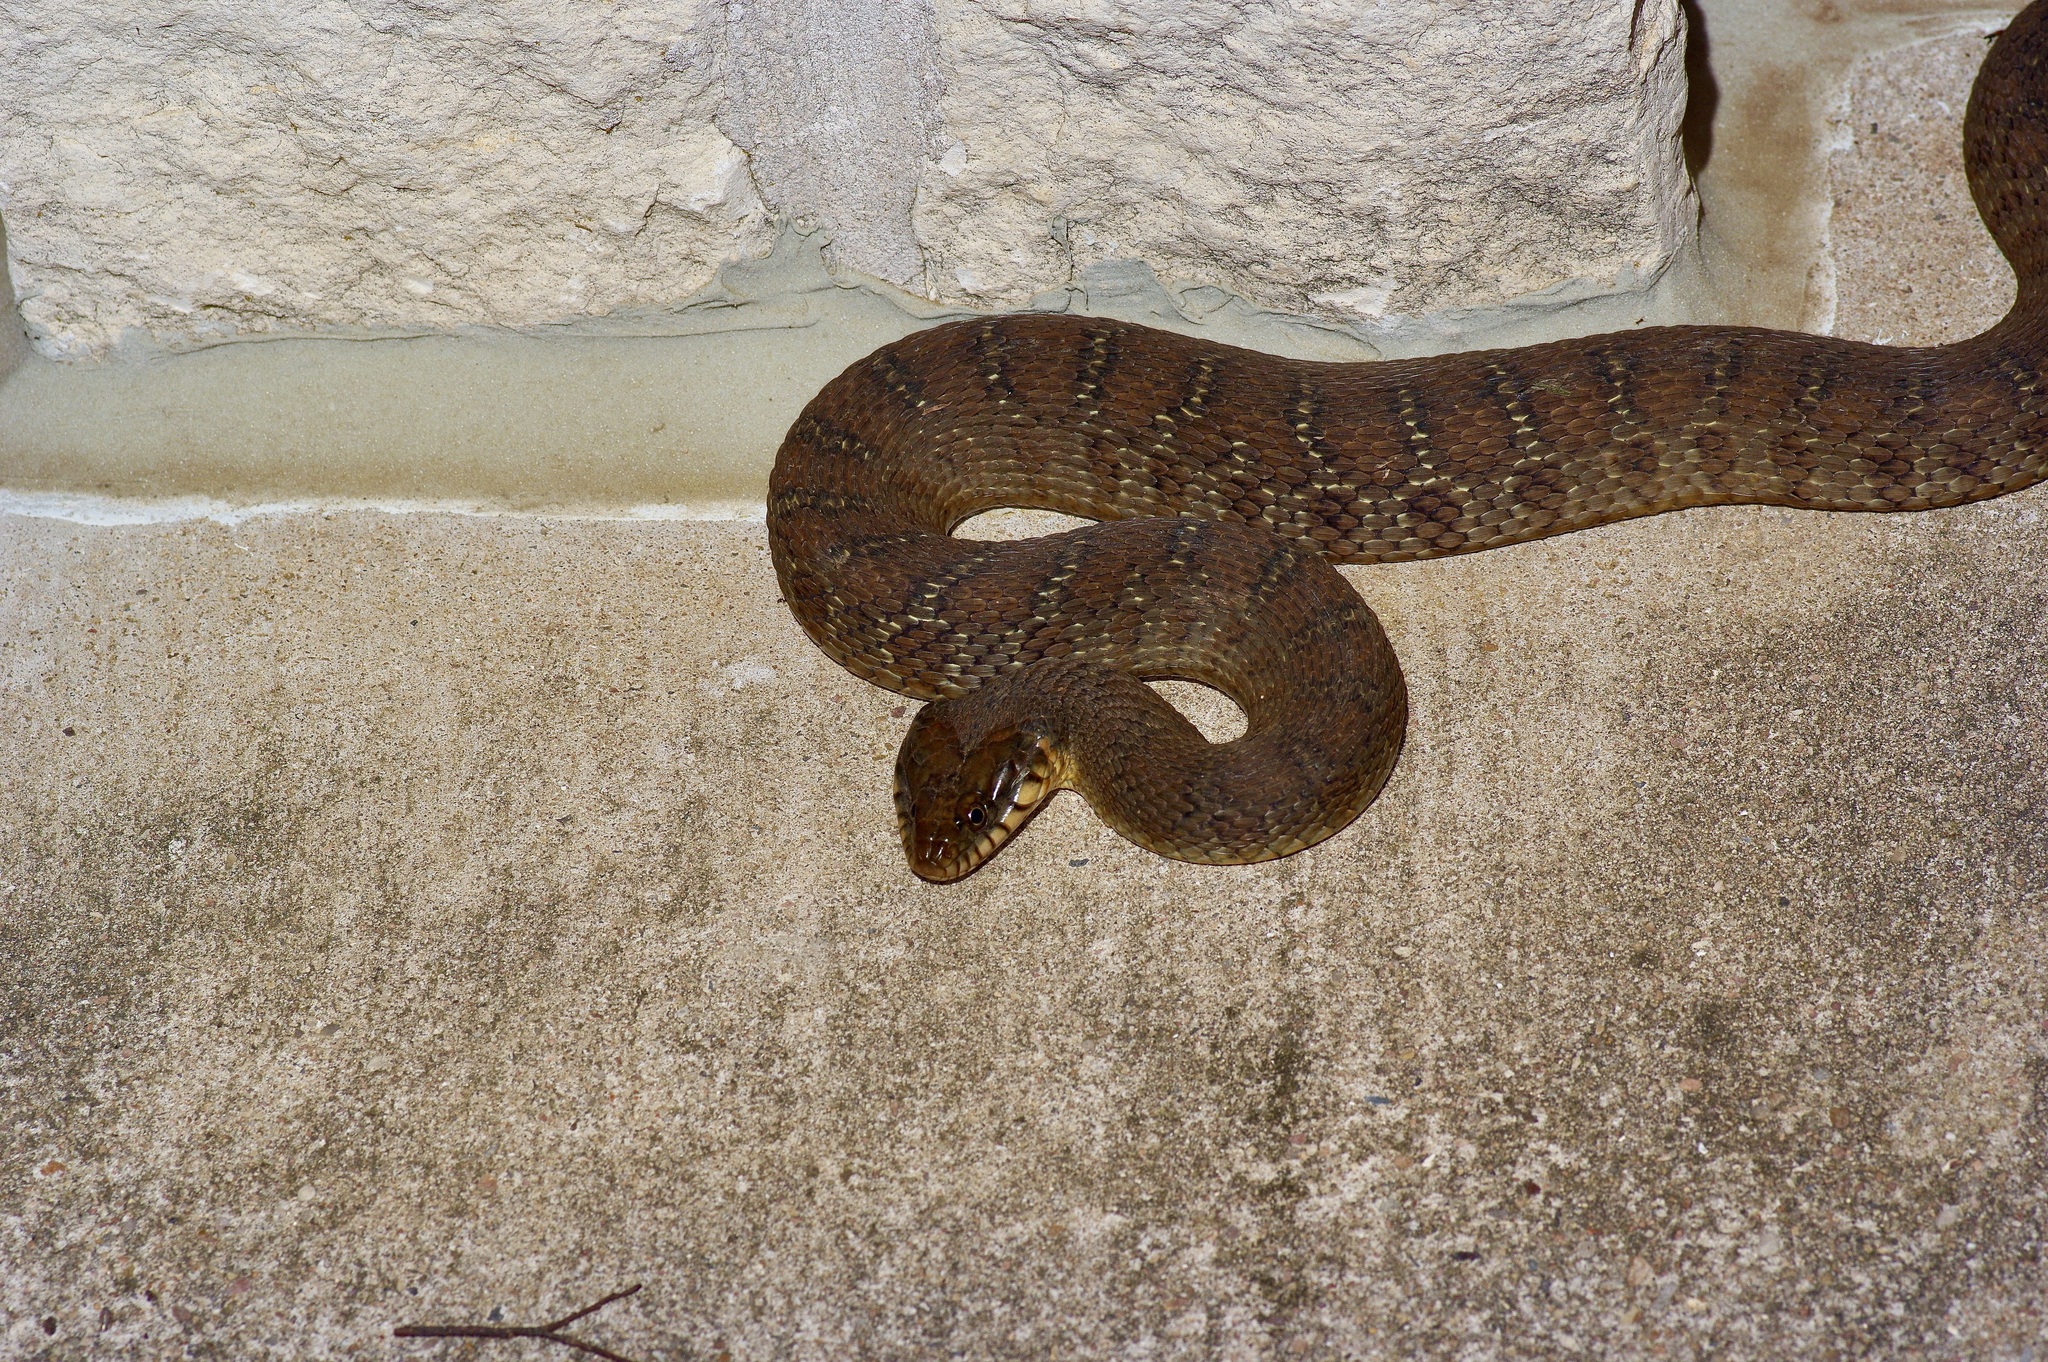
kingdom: Animalia
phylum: Chordata
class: Squamata
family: Colubridae
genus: Nerodia
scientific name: Nerodia erythrogaster
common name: Plainbelly water snake
